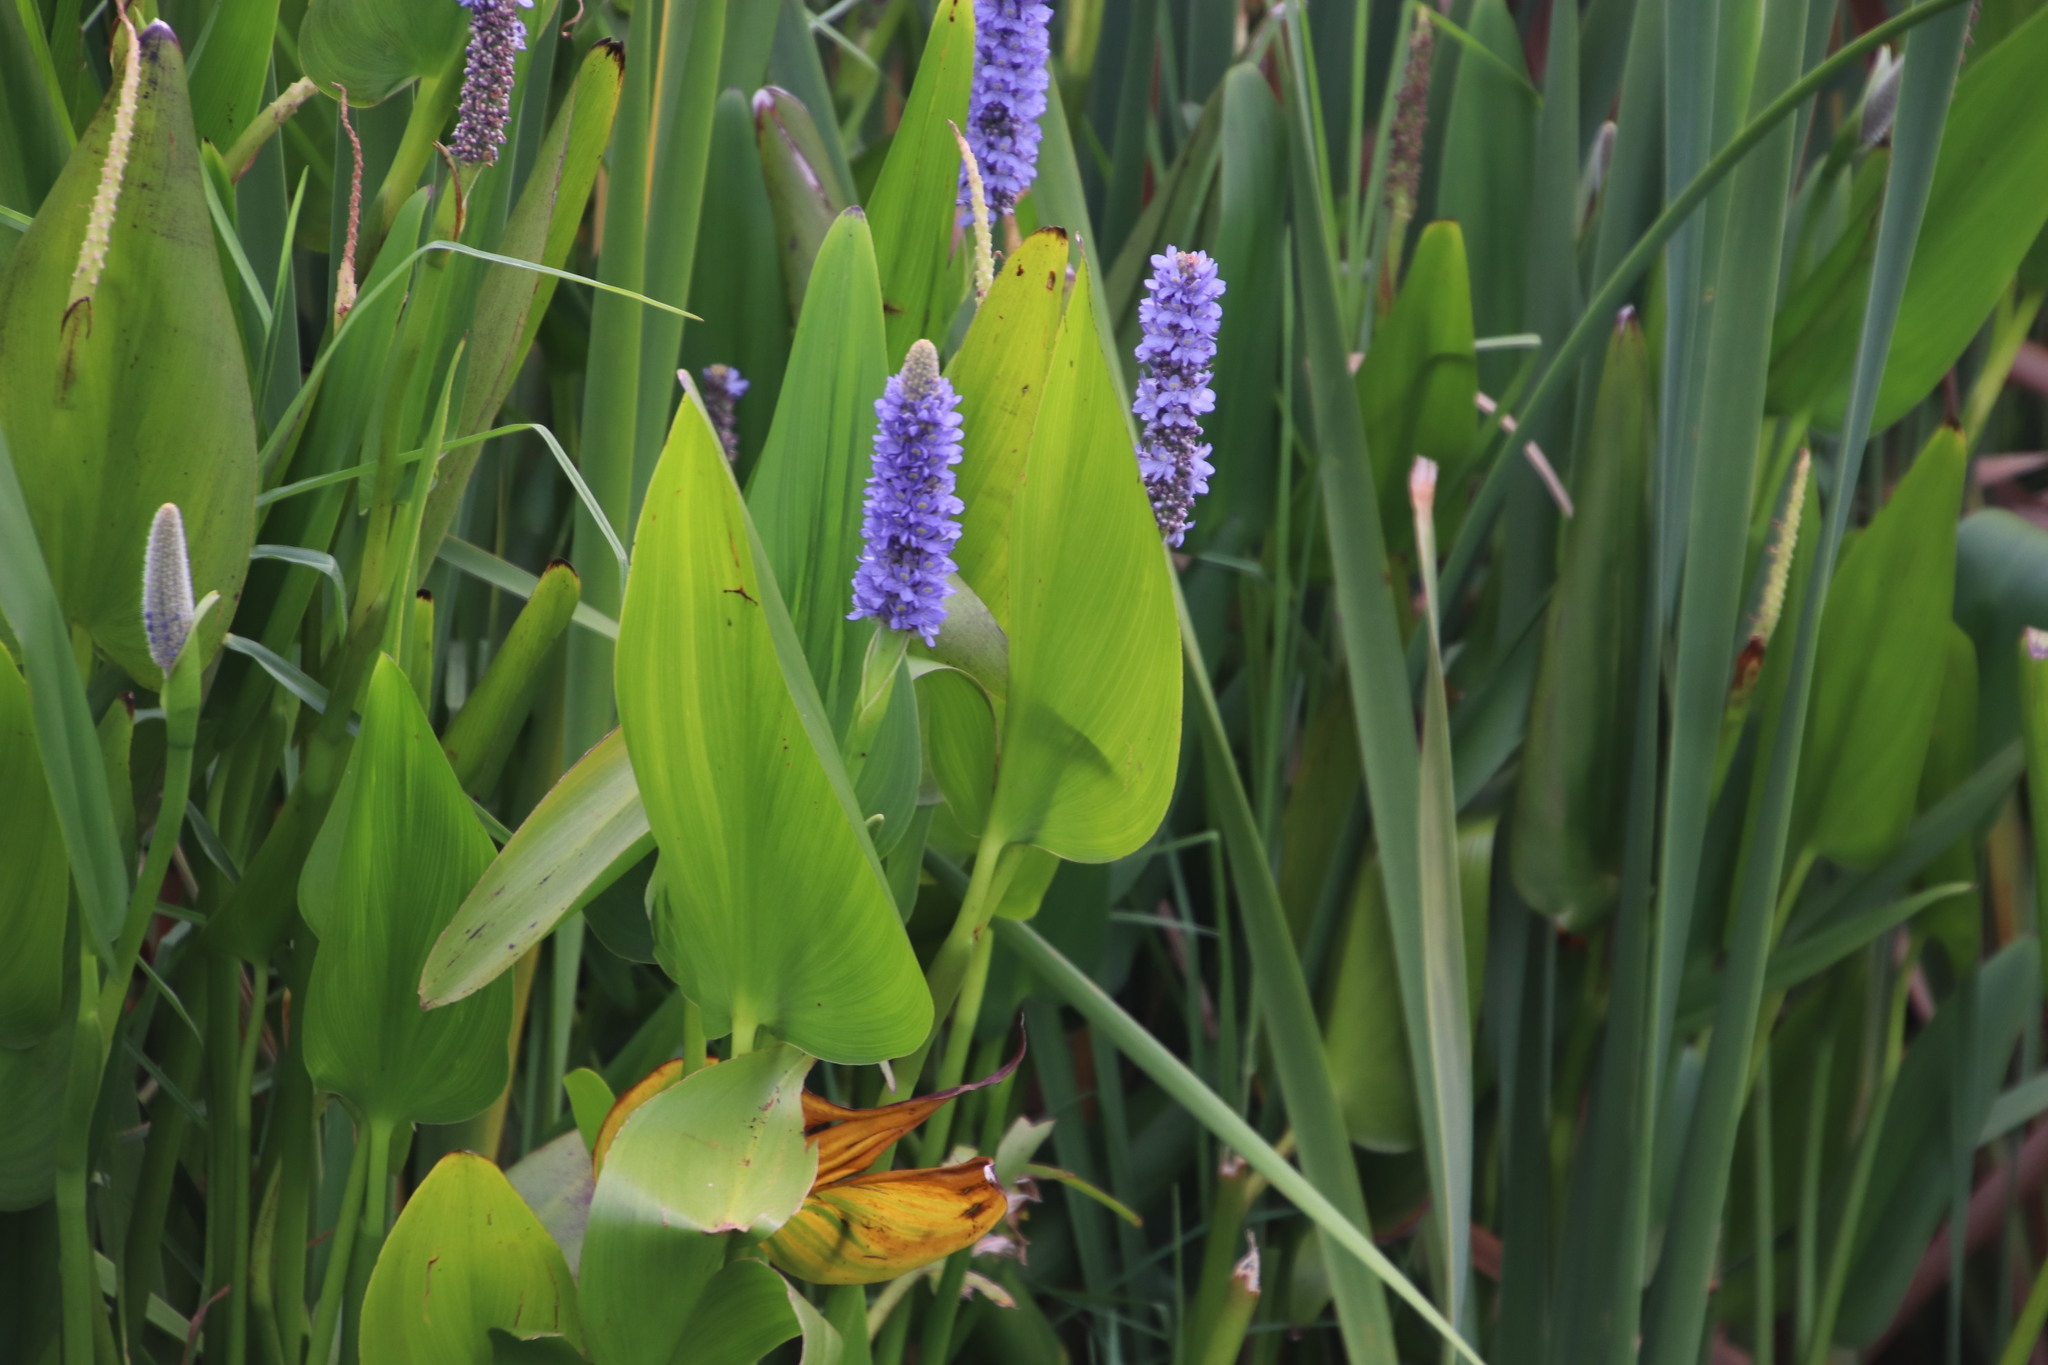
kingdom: Plantae
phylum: Tracheophyta
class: Liliopsida
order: Commelinales
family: Pontederiaceae
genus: Pontederia
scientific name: Pontederia cordata
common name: Pickerelweed
